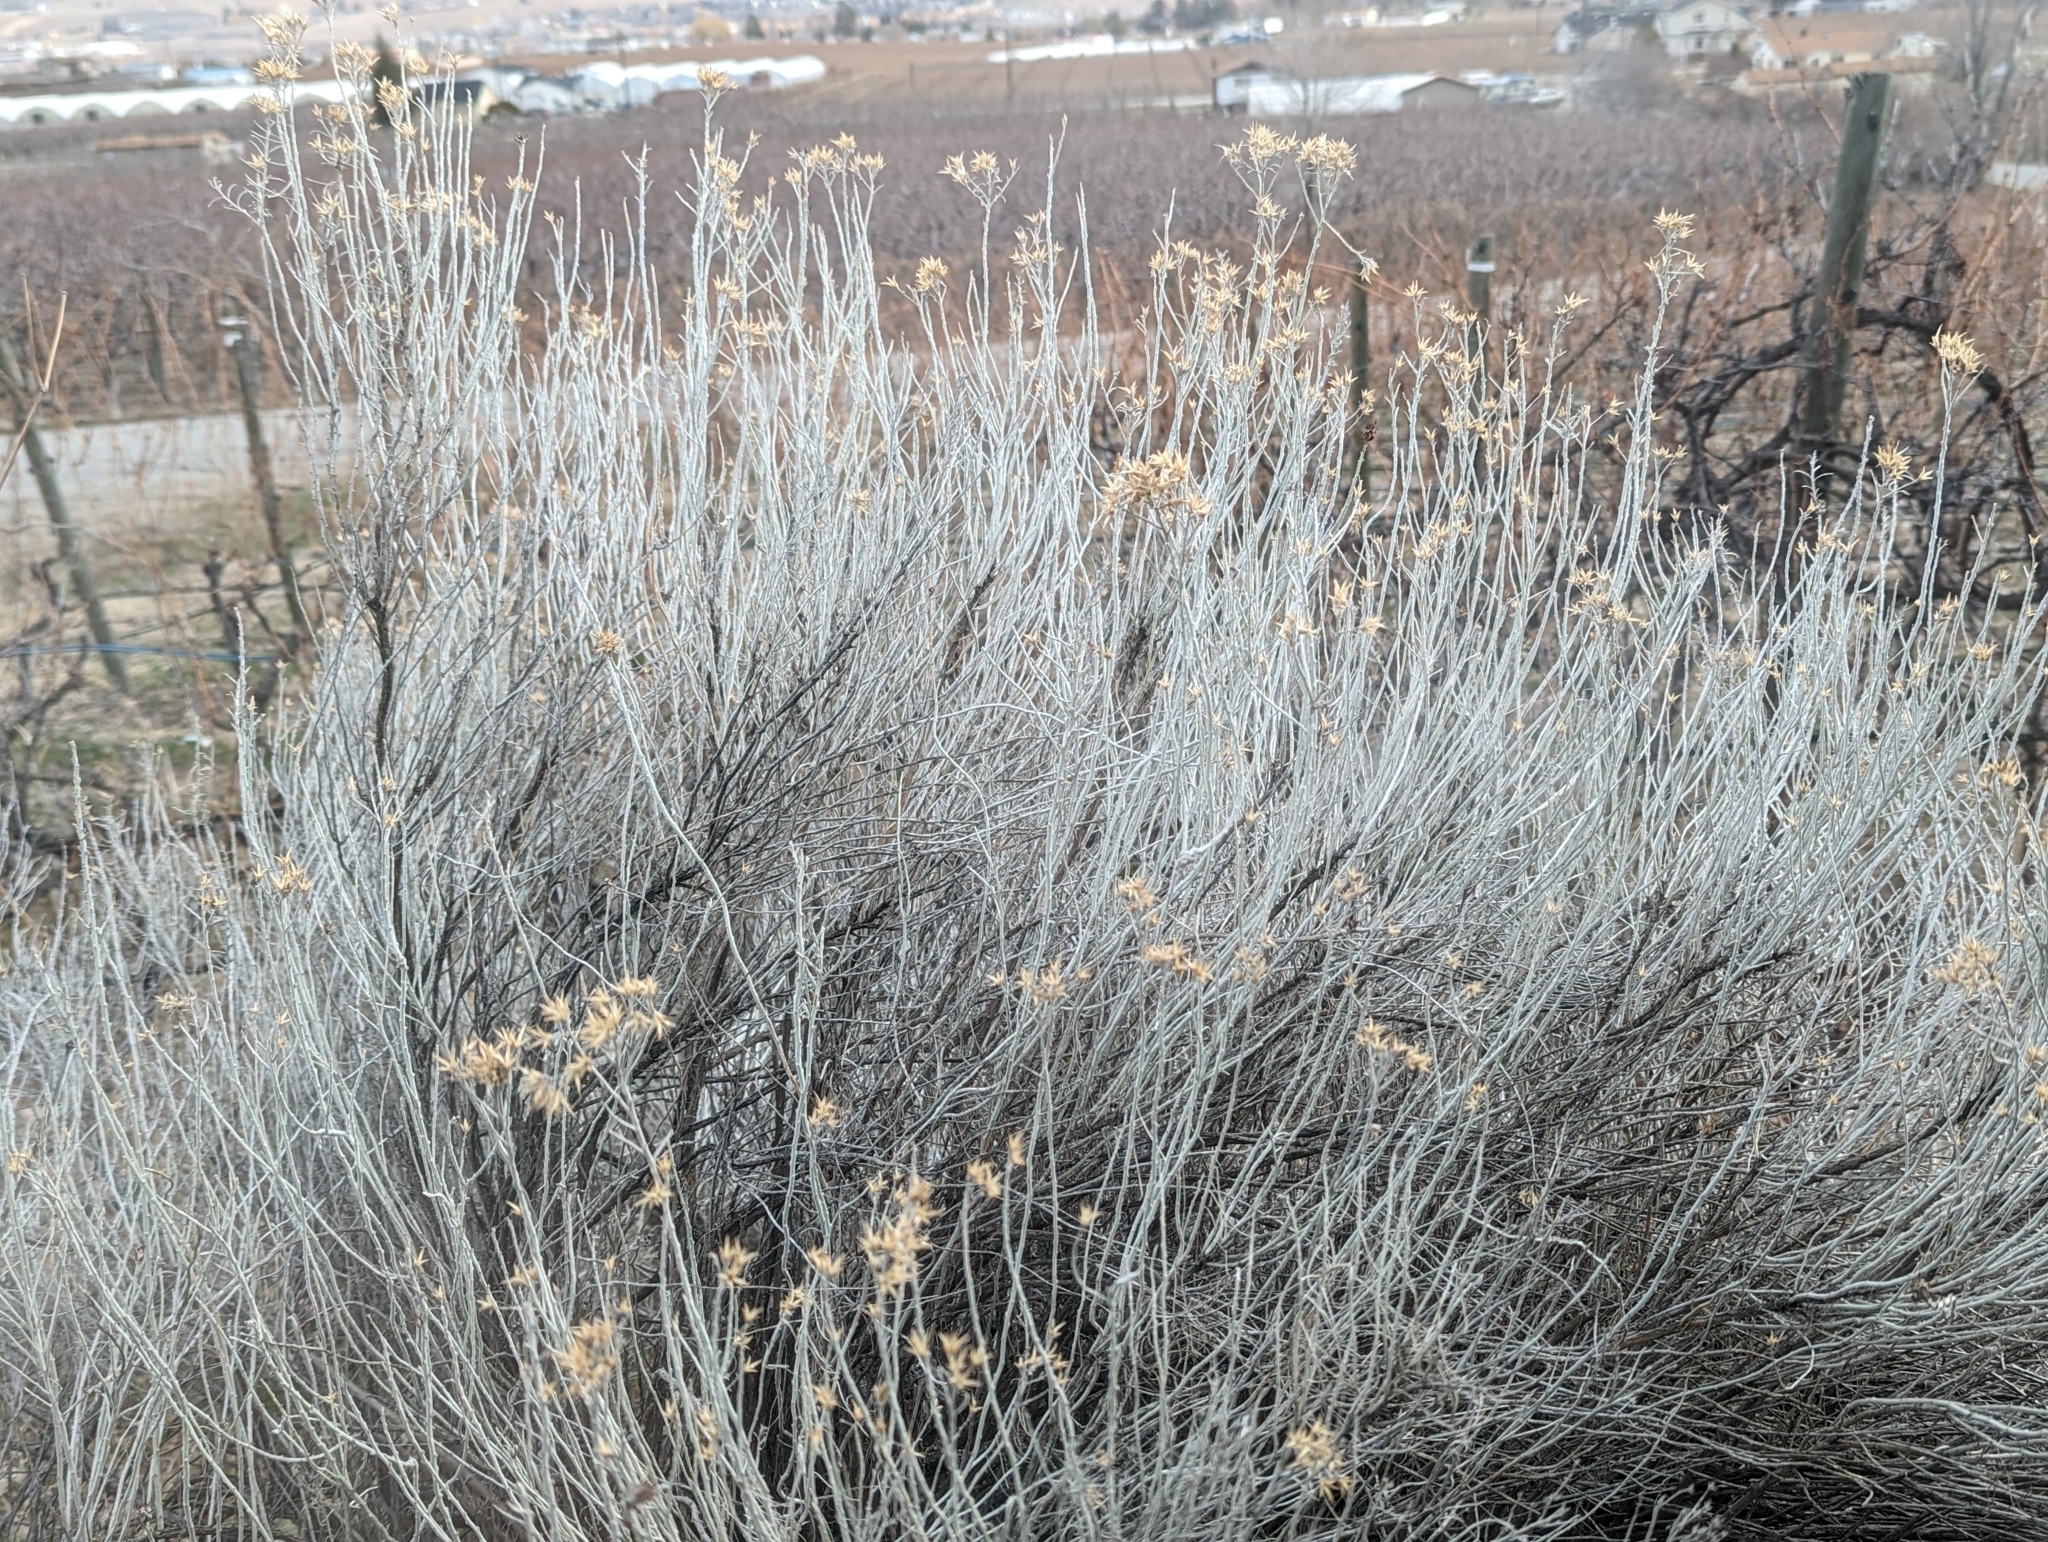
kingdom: Plantae
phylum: Tracheophyta
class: Magnoliopsida
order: Asterales
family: Asteraceae
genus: Ericameria
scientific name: Ericameria nauseosa
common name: Rubber rabbitbrush
